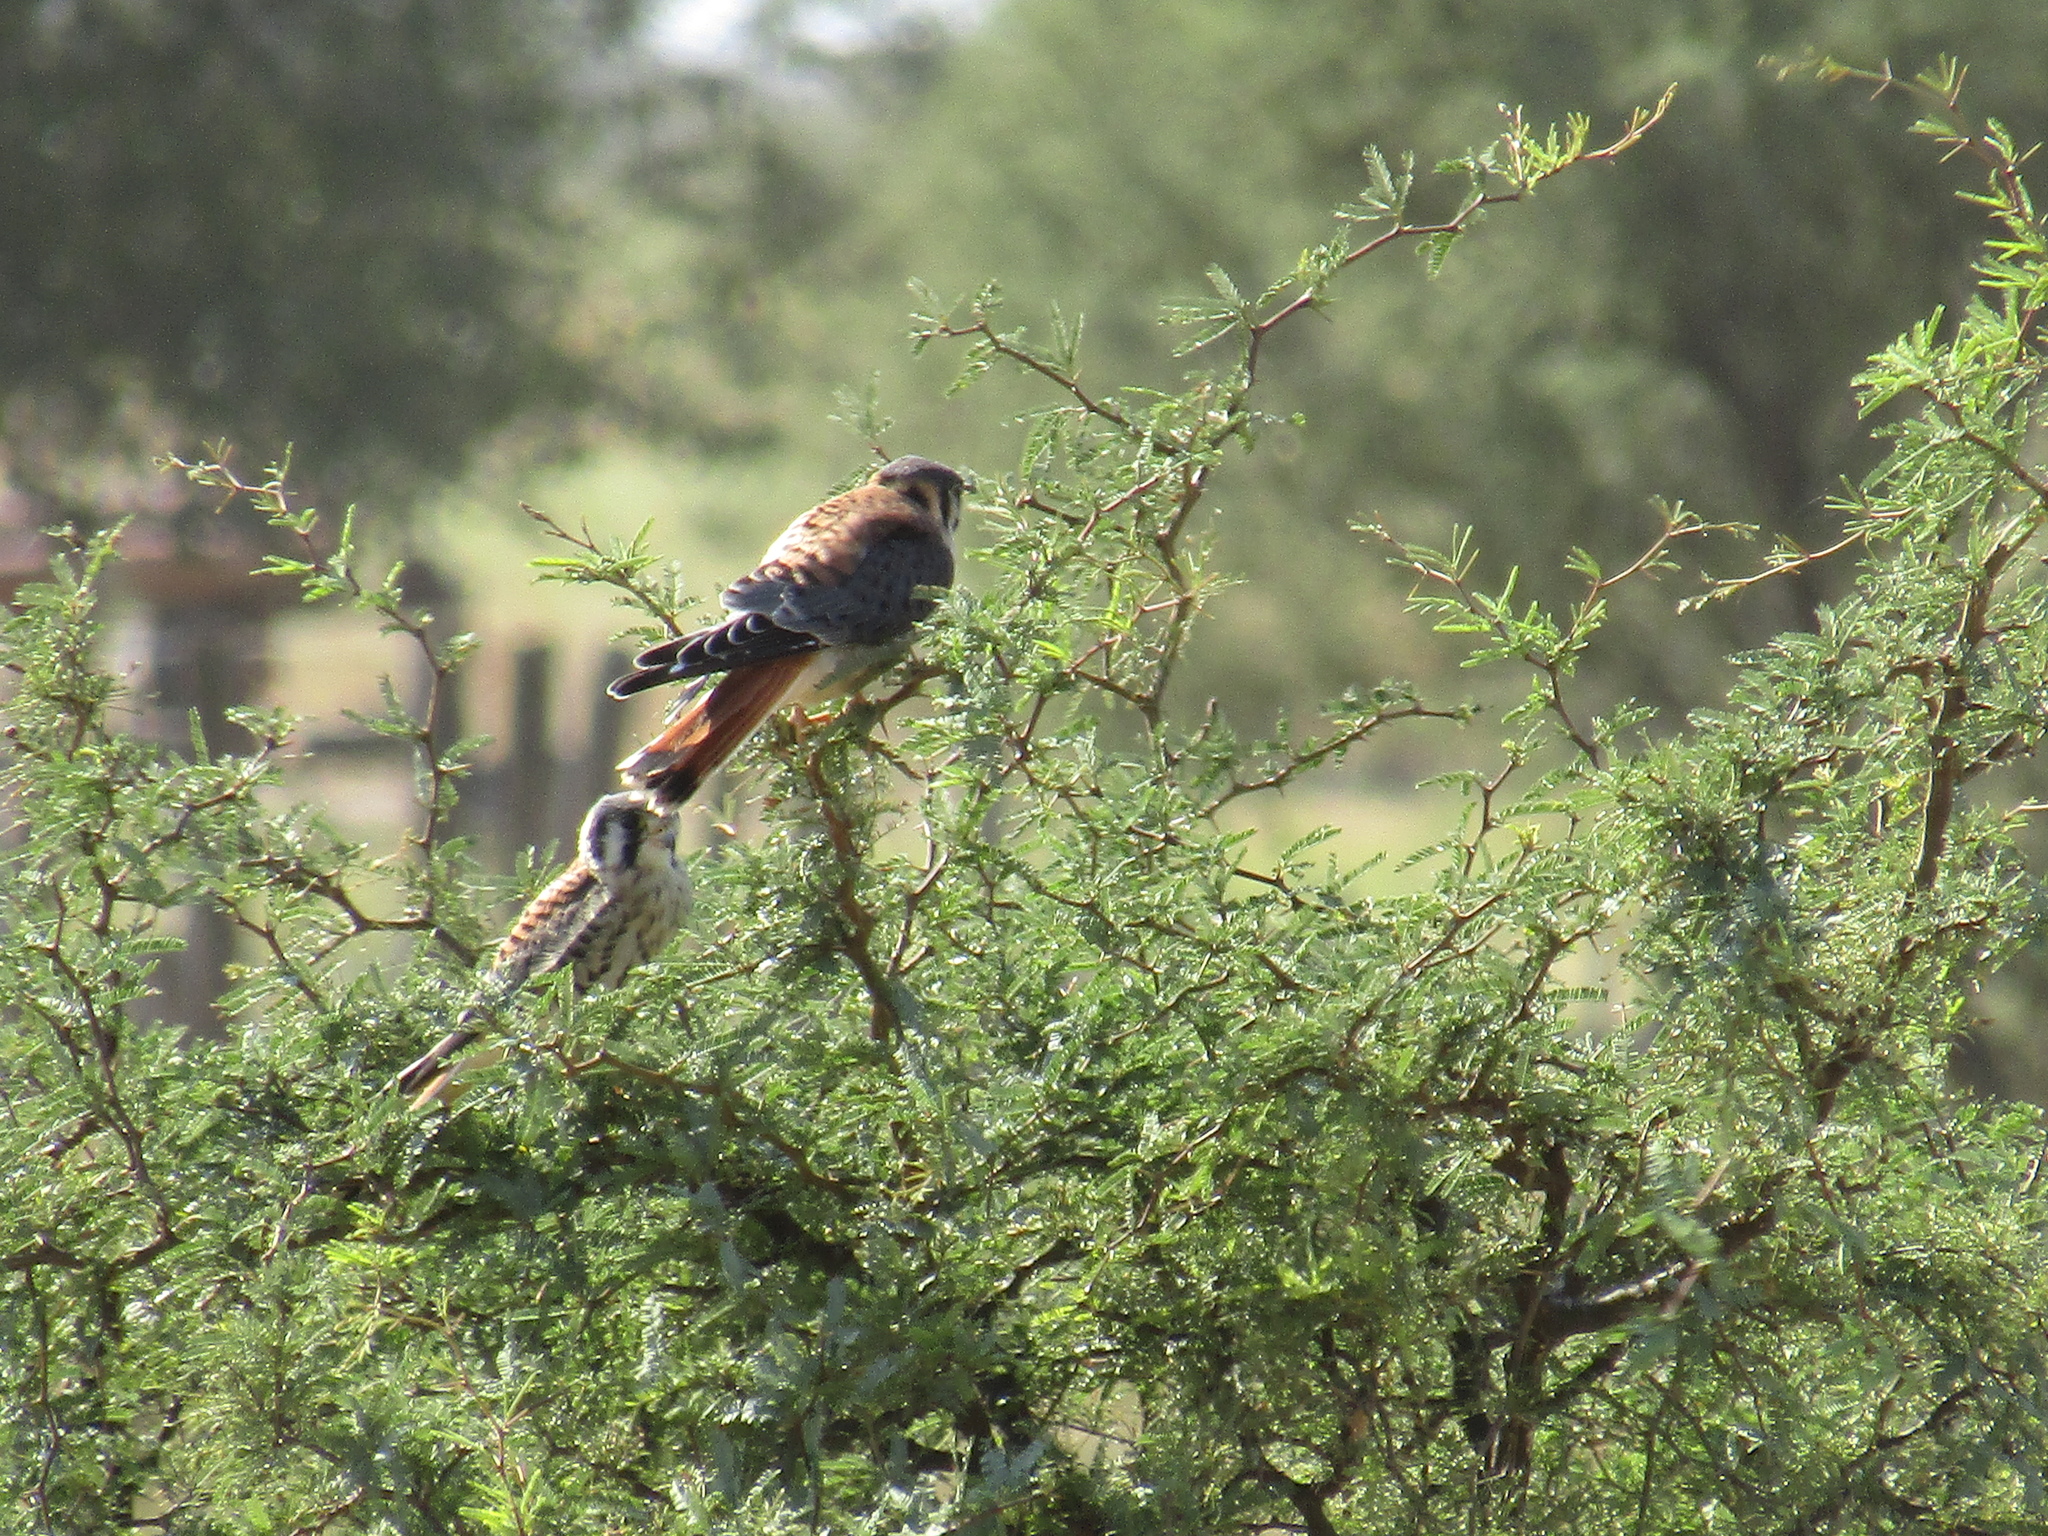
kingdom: Animalia
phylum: Chordata
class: Aves
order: Falconiformes
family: Falconidae
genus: Falco
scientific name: Falco sparverius
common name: American kestrel
